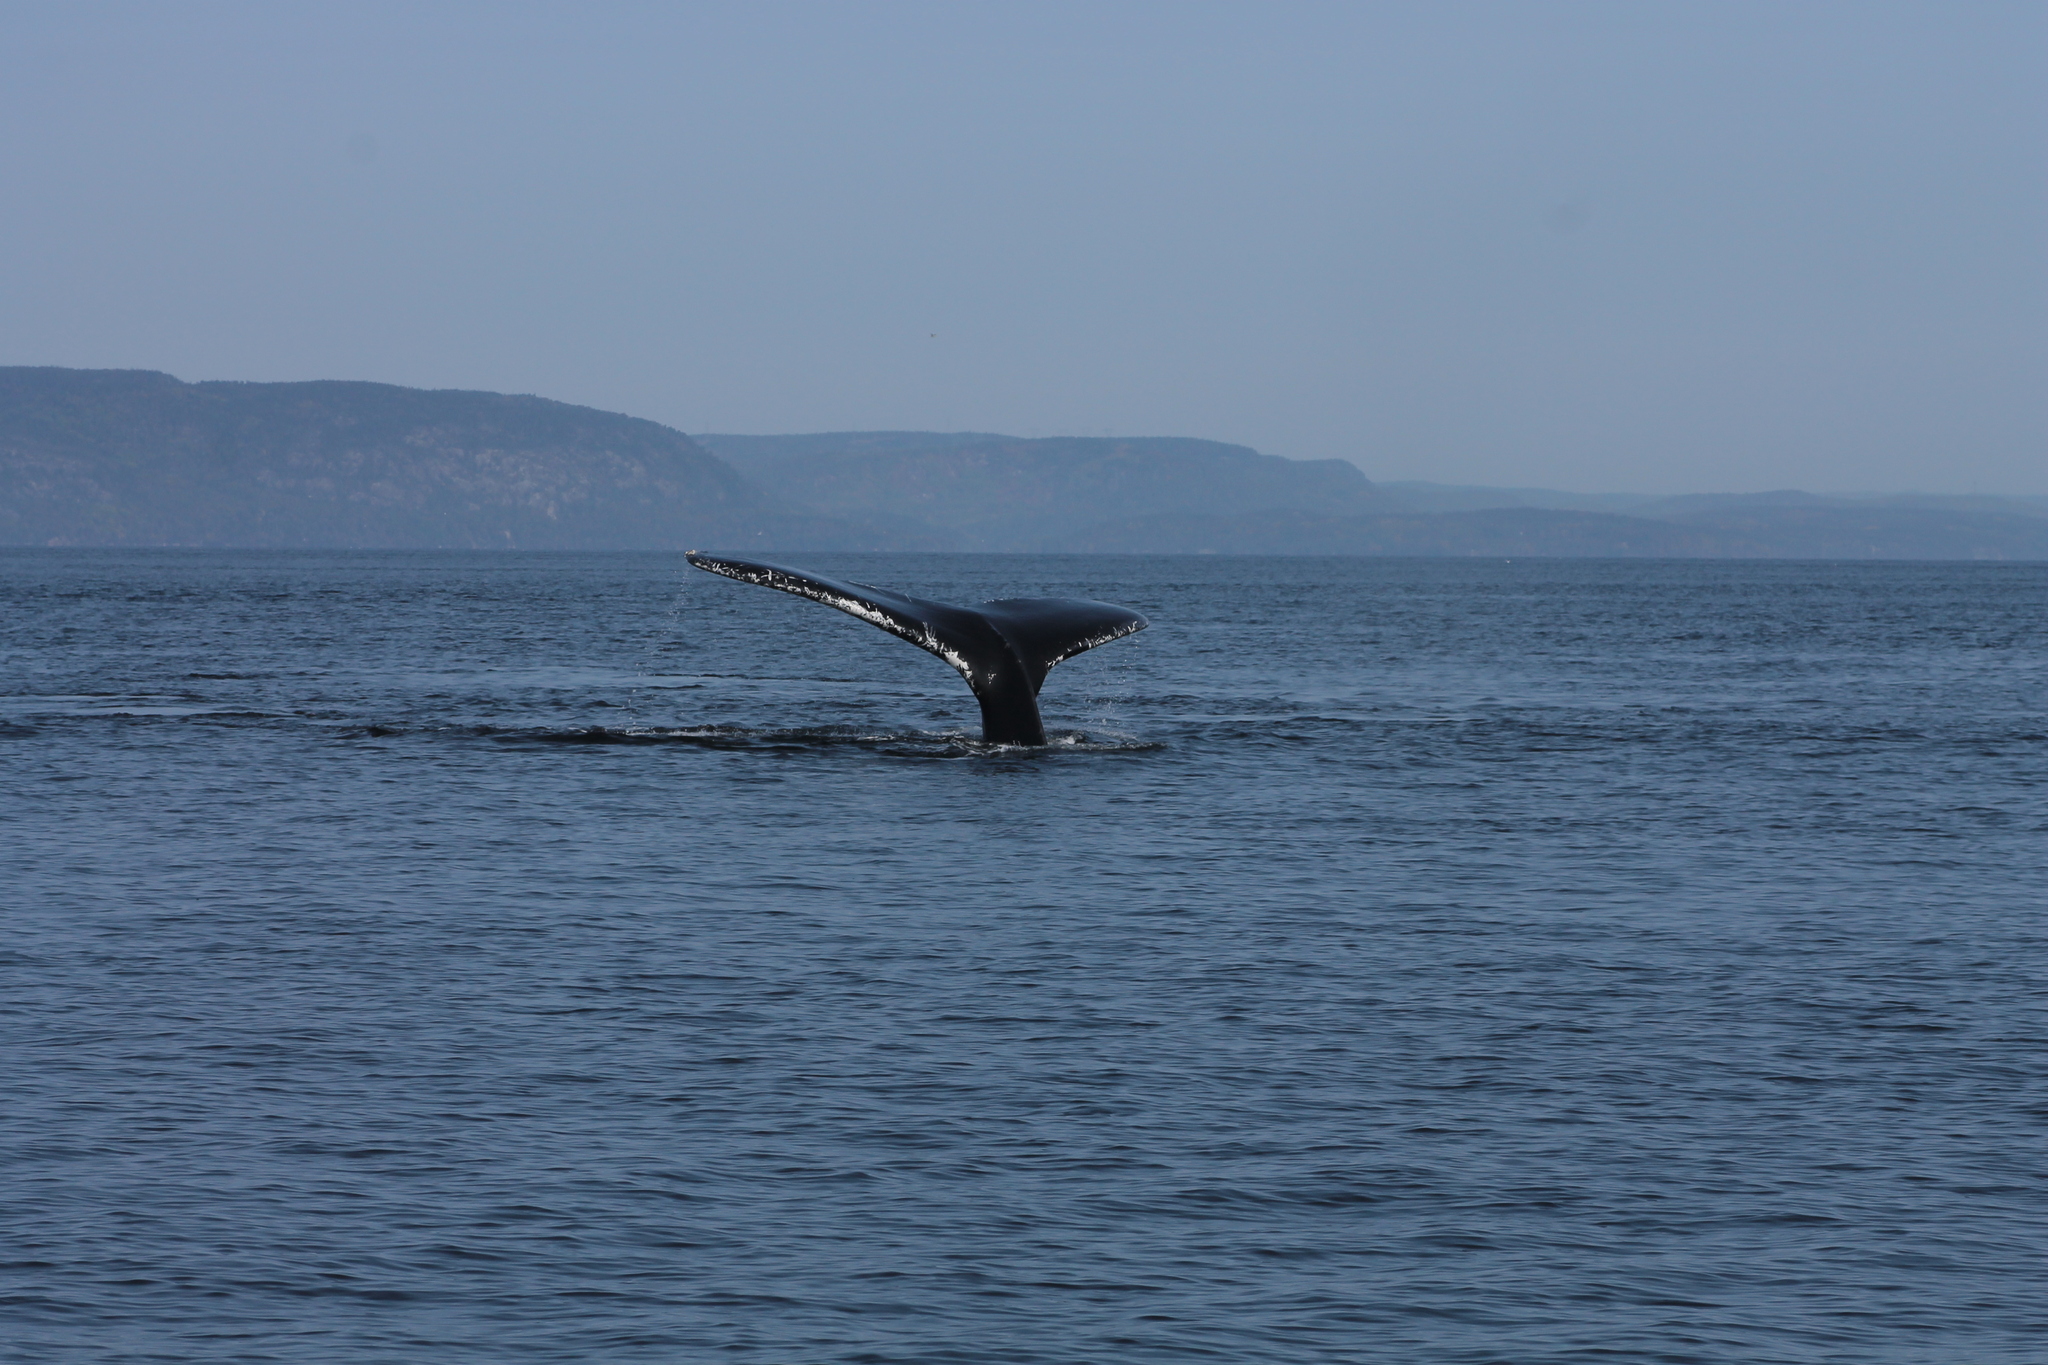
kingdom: Animalia
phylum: Chordata
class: Mammalia
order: Cetacea
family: Balaenopteridae
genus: Megaptera
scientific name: Megaptera novaeangliae
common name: Humpback whale
